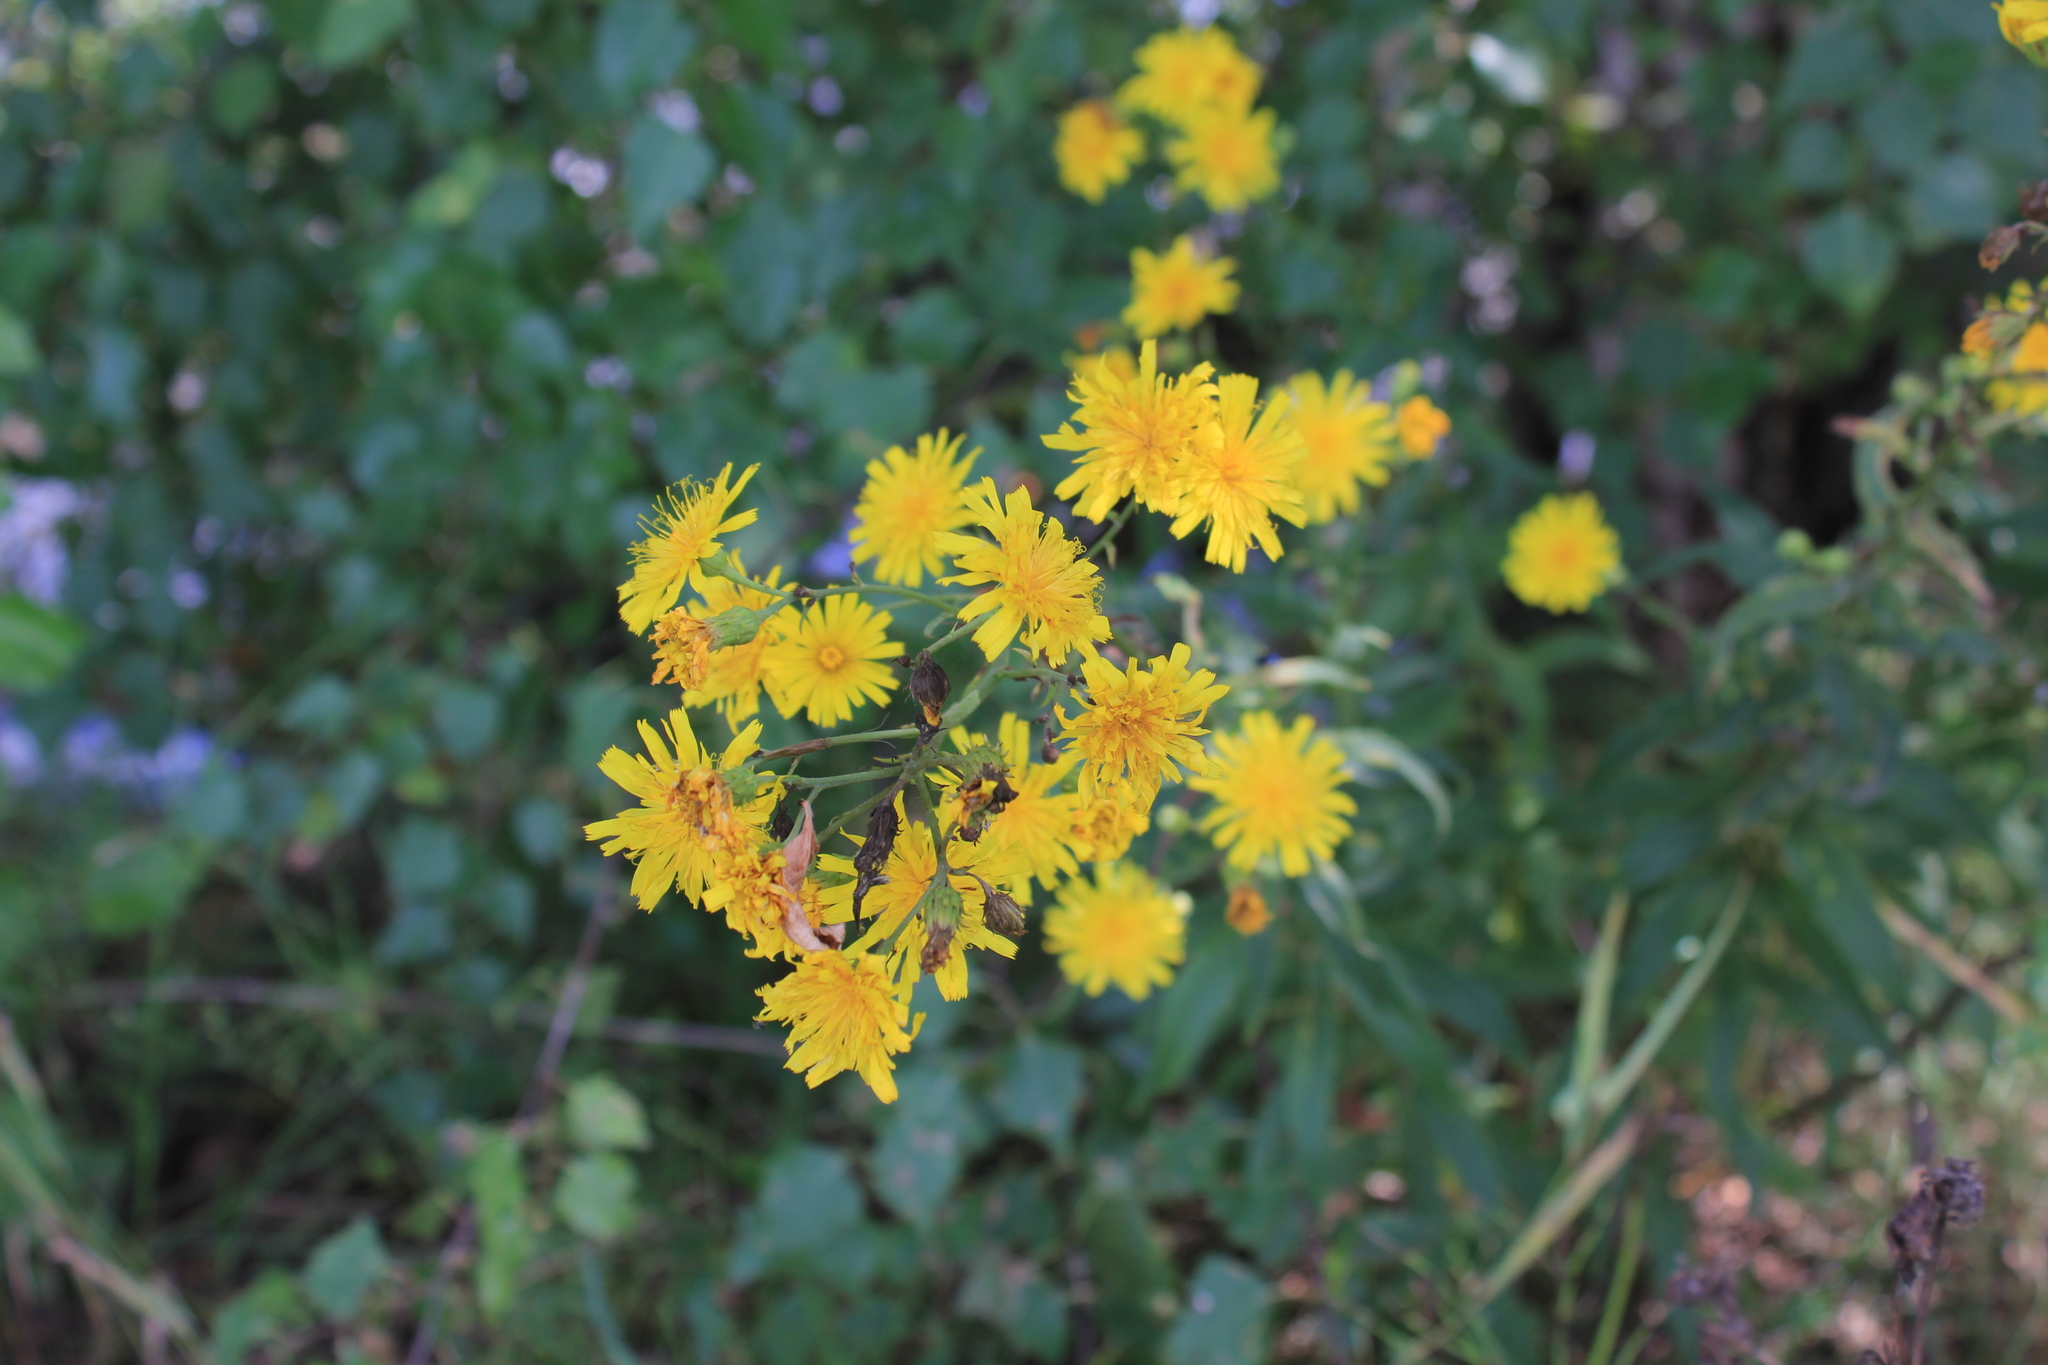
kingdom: Plantae
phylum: Tracheophyta
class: Magnoliopsida
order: Asterales
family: Asteraceae
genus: Hieracium
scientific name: Hieracium umbellatum
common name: Northern hawkweed
